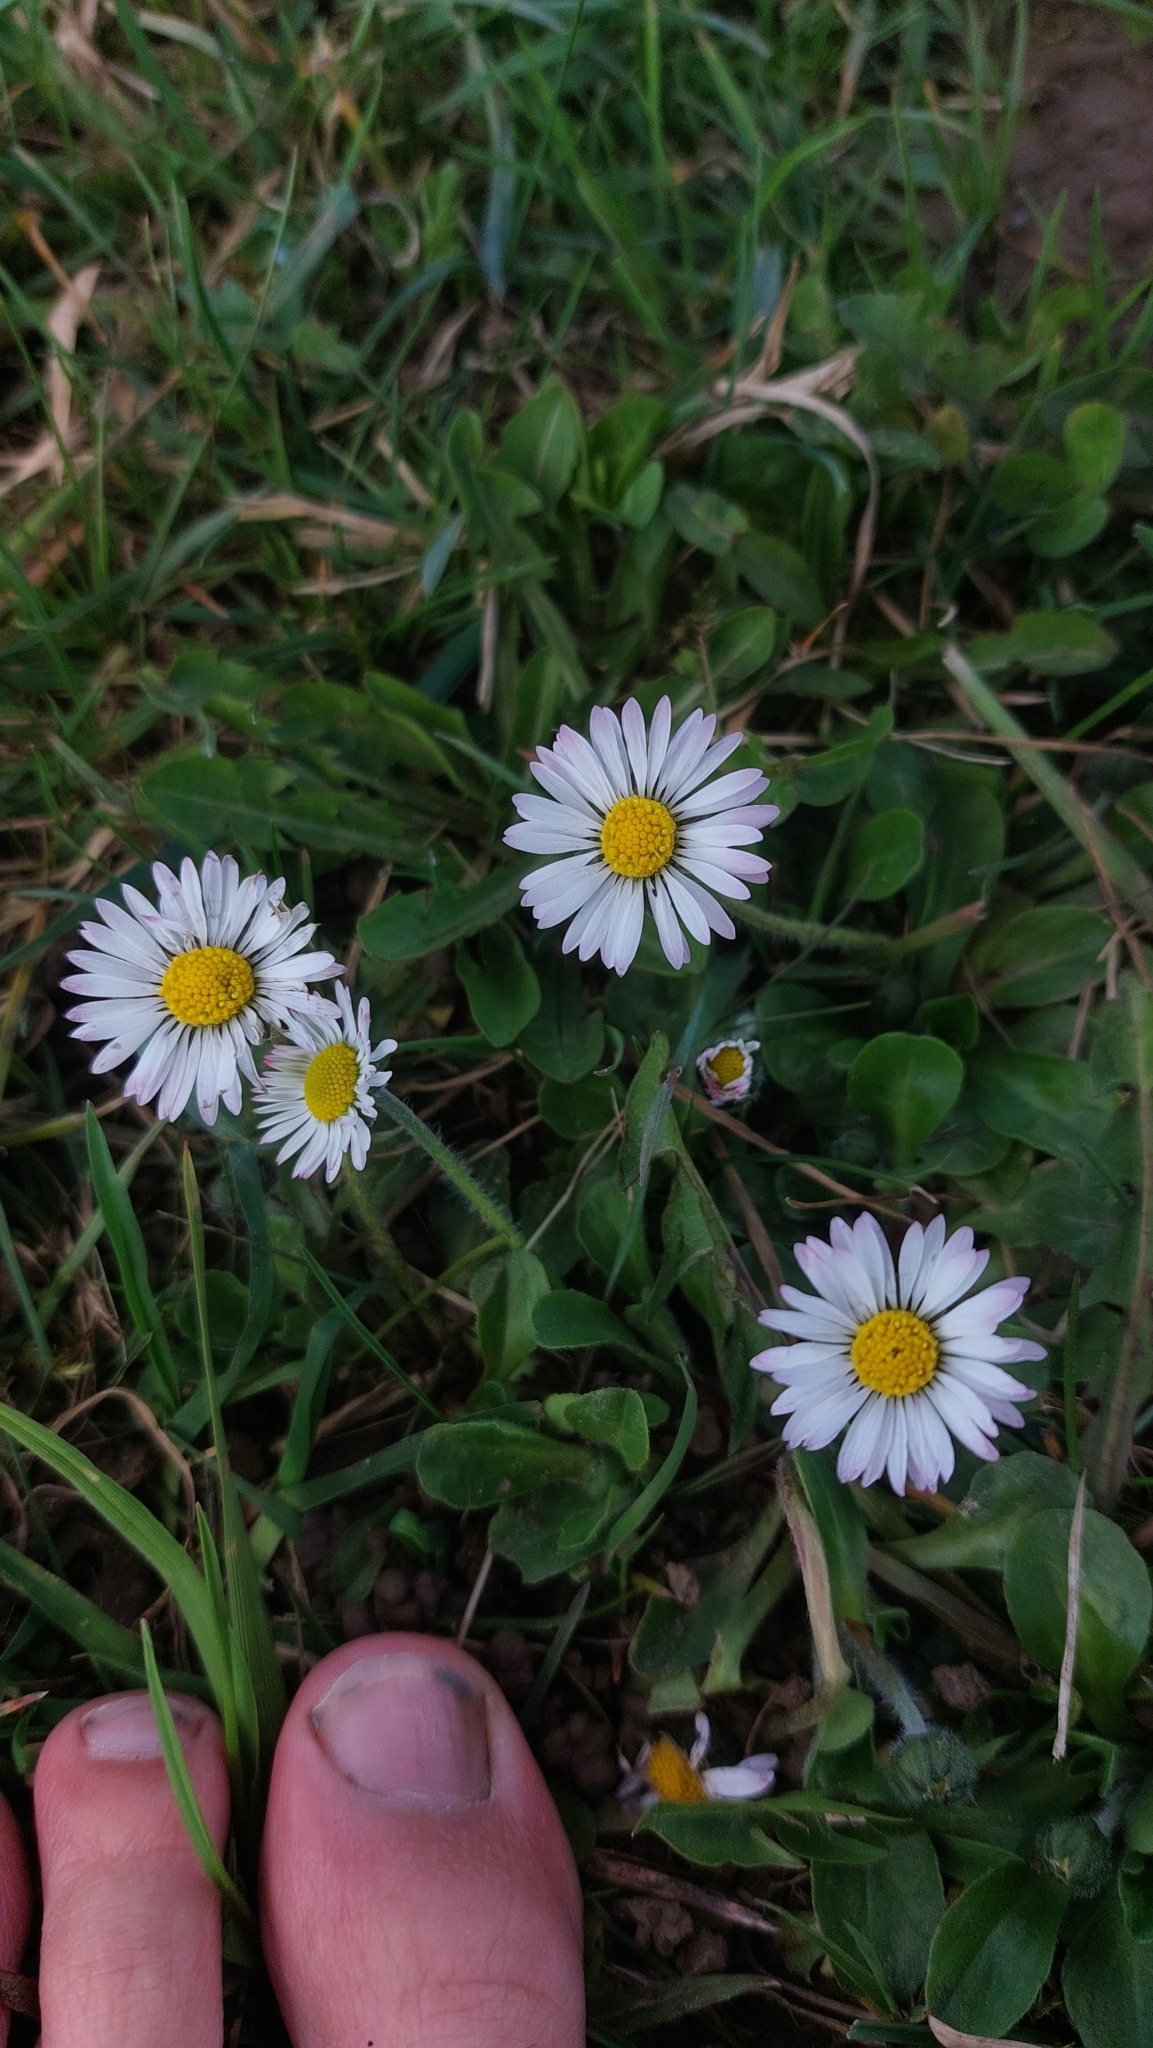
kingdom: Plantae
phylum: Tracheophyta
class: Magnoliopsida
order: Asterales
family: Asteraceae
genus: Bellis
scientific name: Bellis perennis
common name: Lawndaisy
